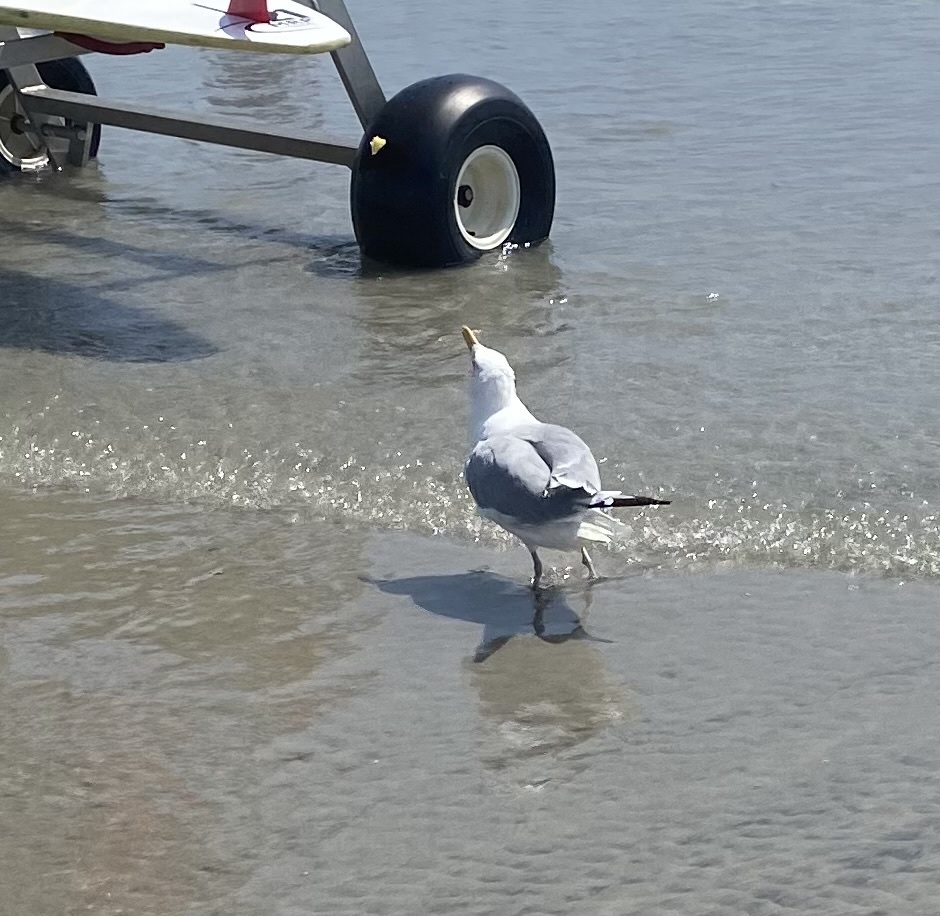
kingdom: Animalia
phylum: Chordata
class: Aves
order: Charadriiformes
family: Laridae
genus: Larus
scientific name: Larus argentatus
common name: Herring gull
